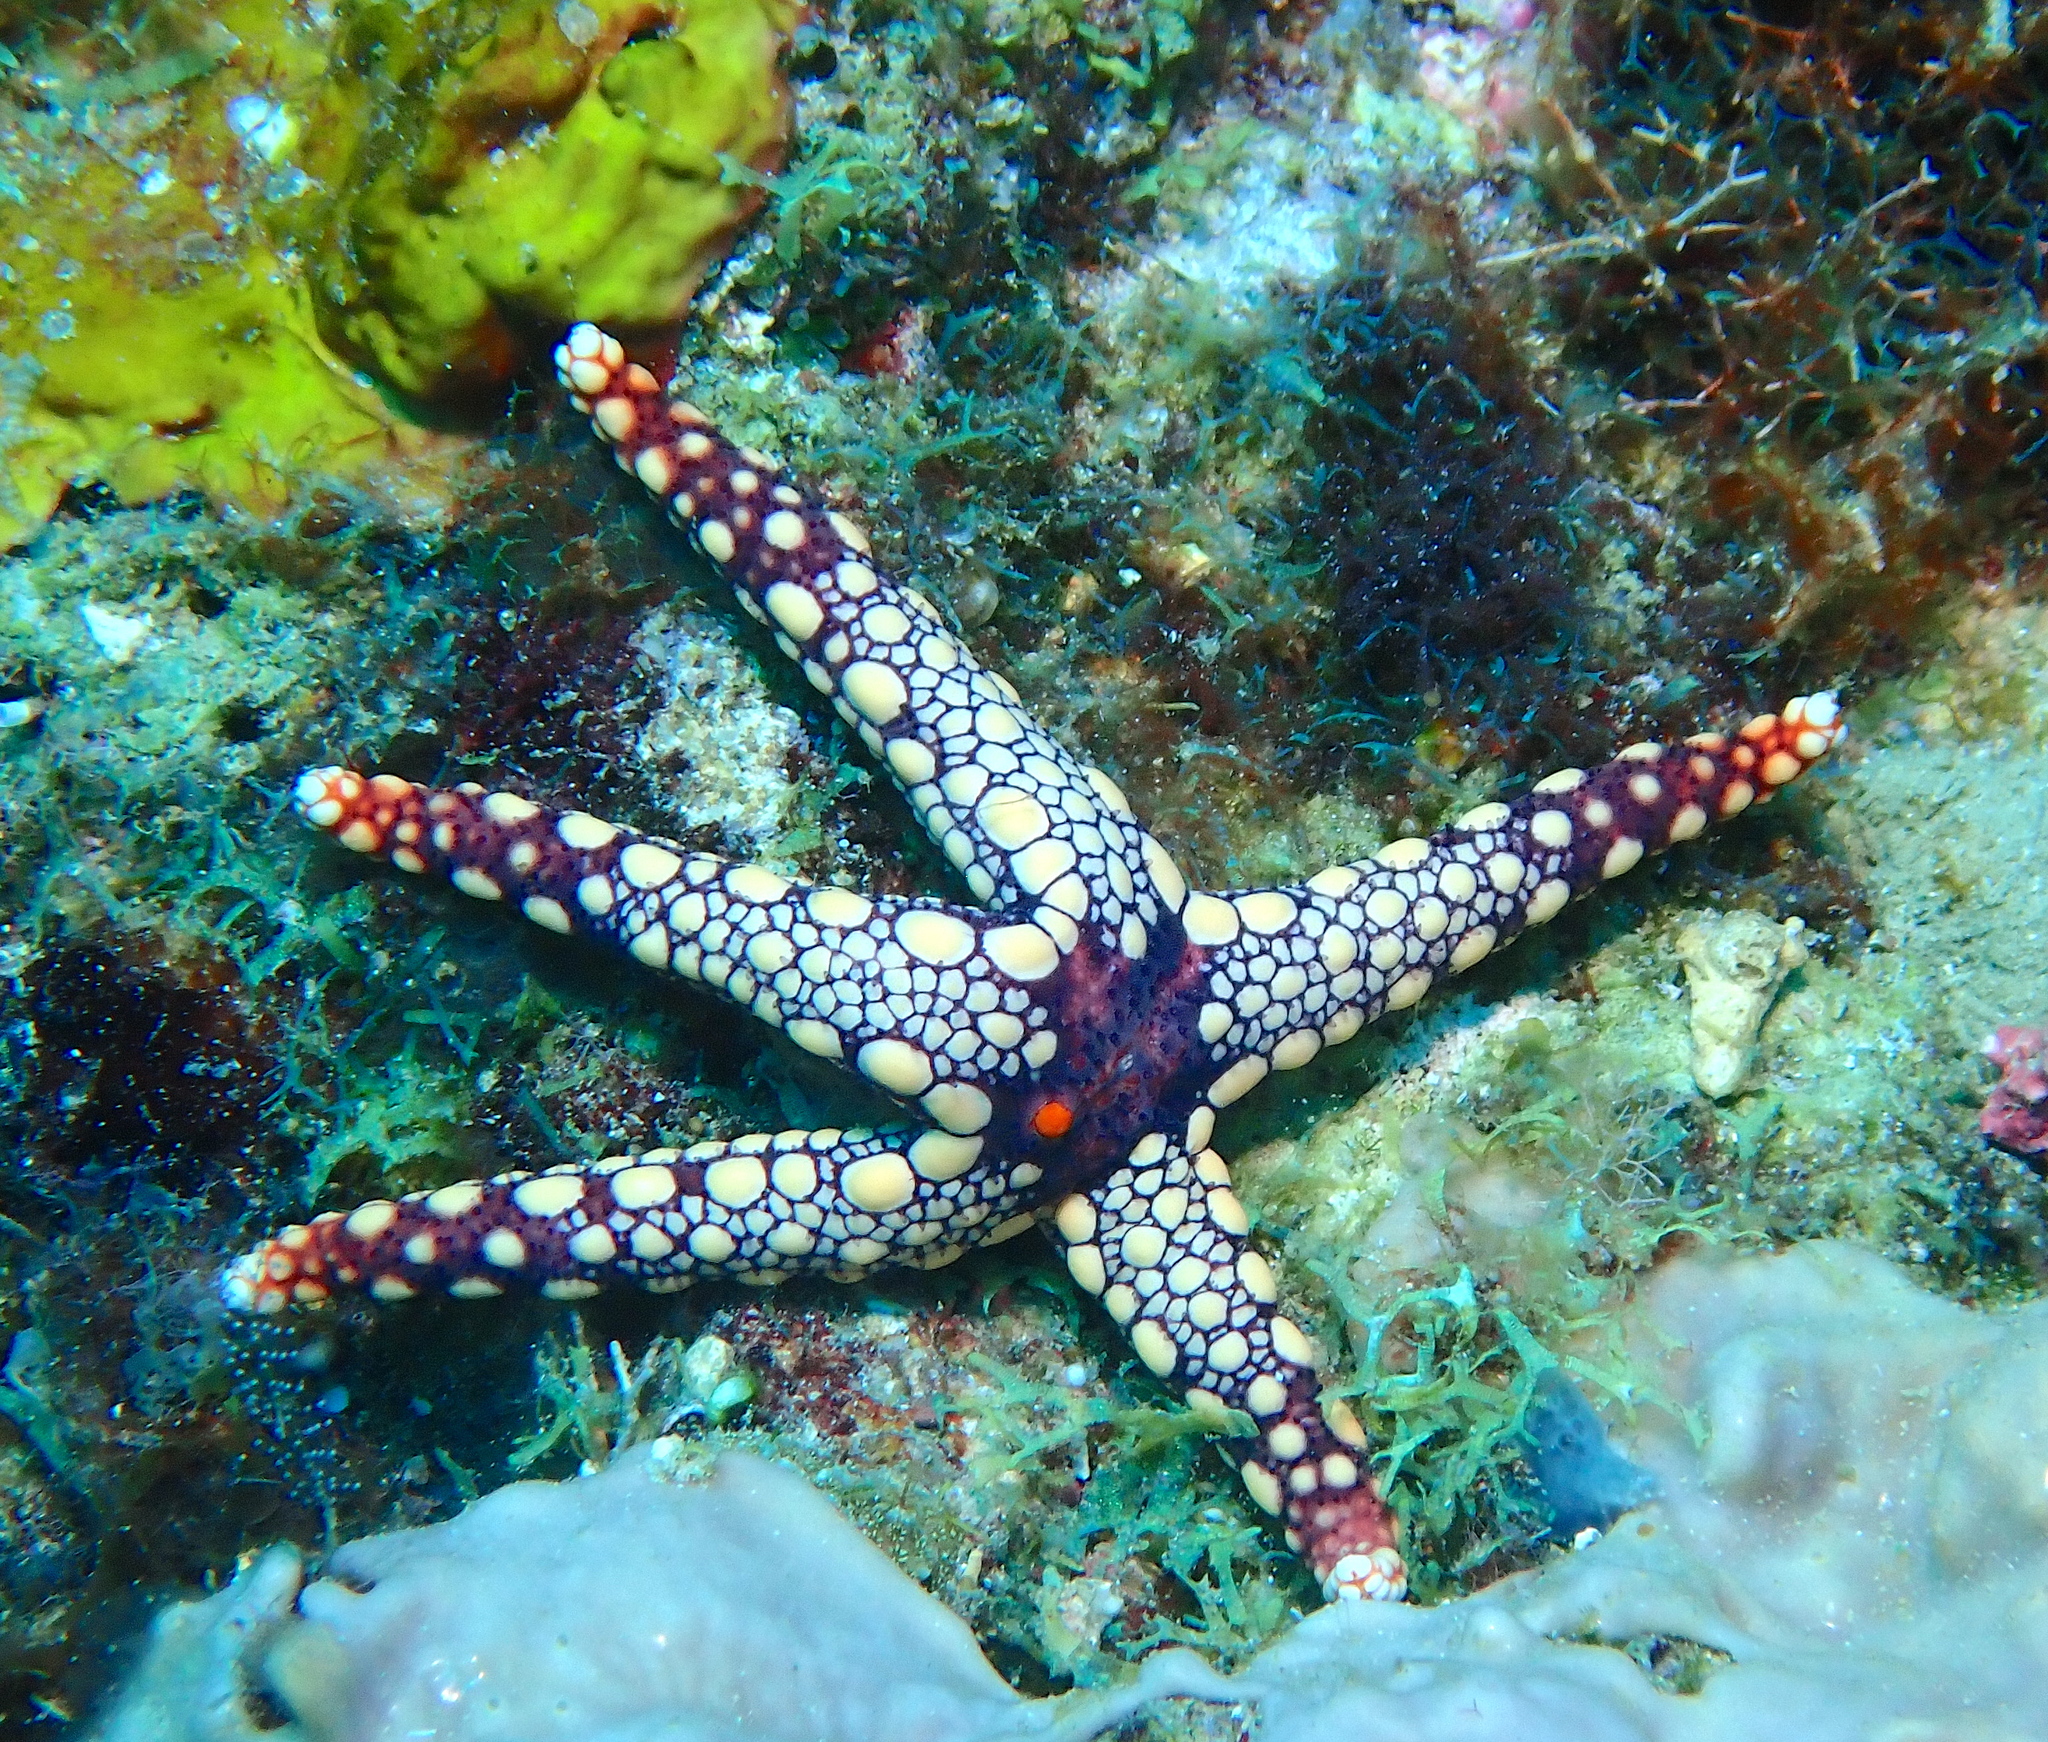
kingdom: Animalia
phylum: Echinodermata
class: Asteroidea
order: Valvatida
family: Goniasteridae
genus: Fromia
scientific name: Fromia heffernani
